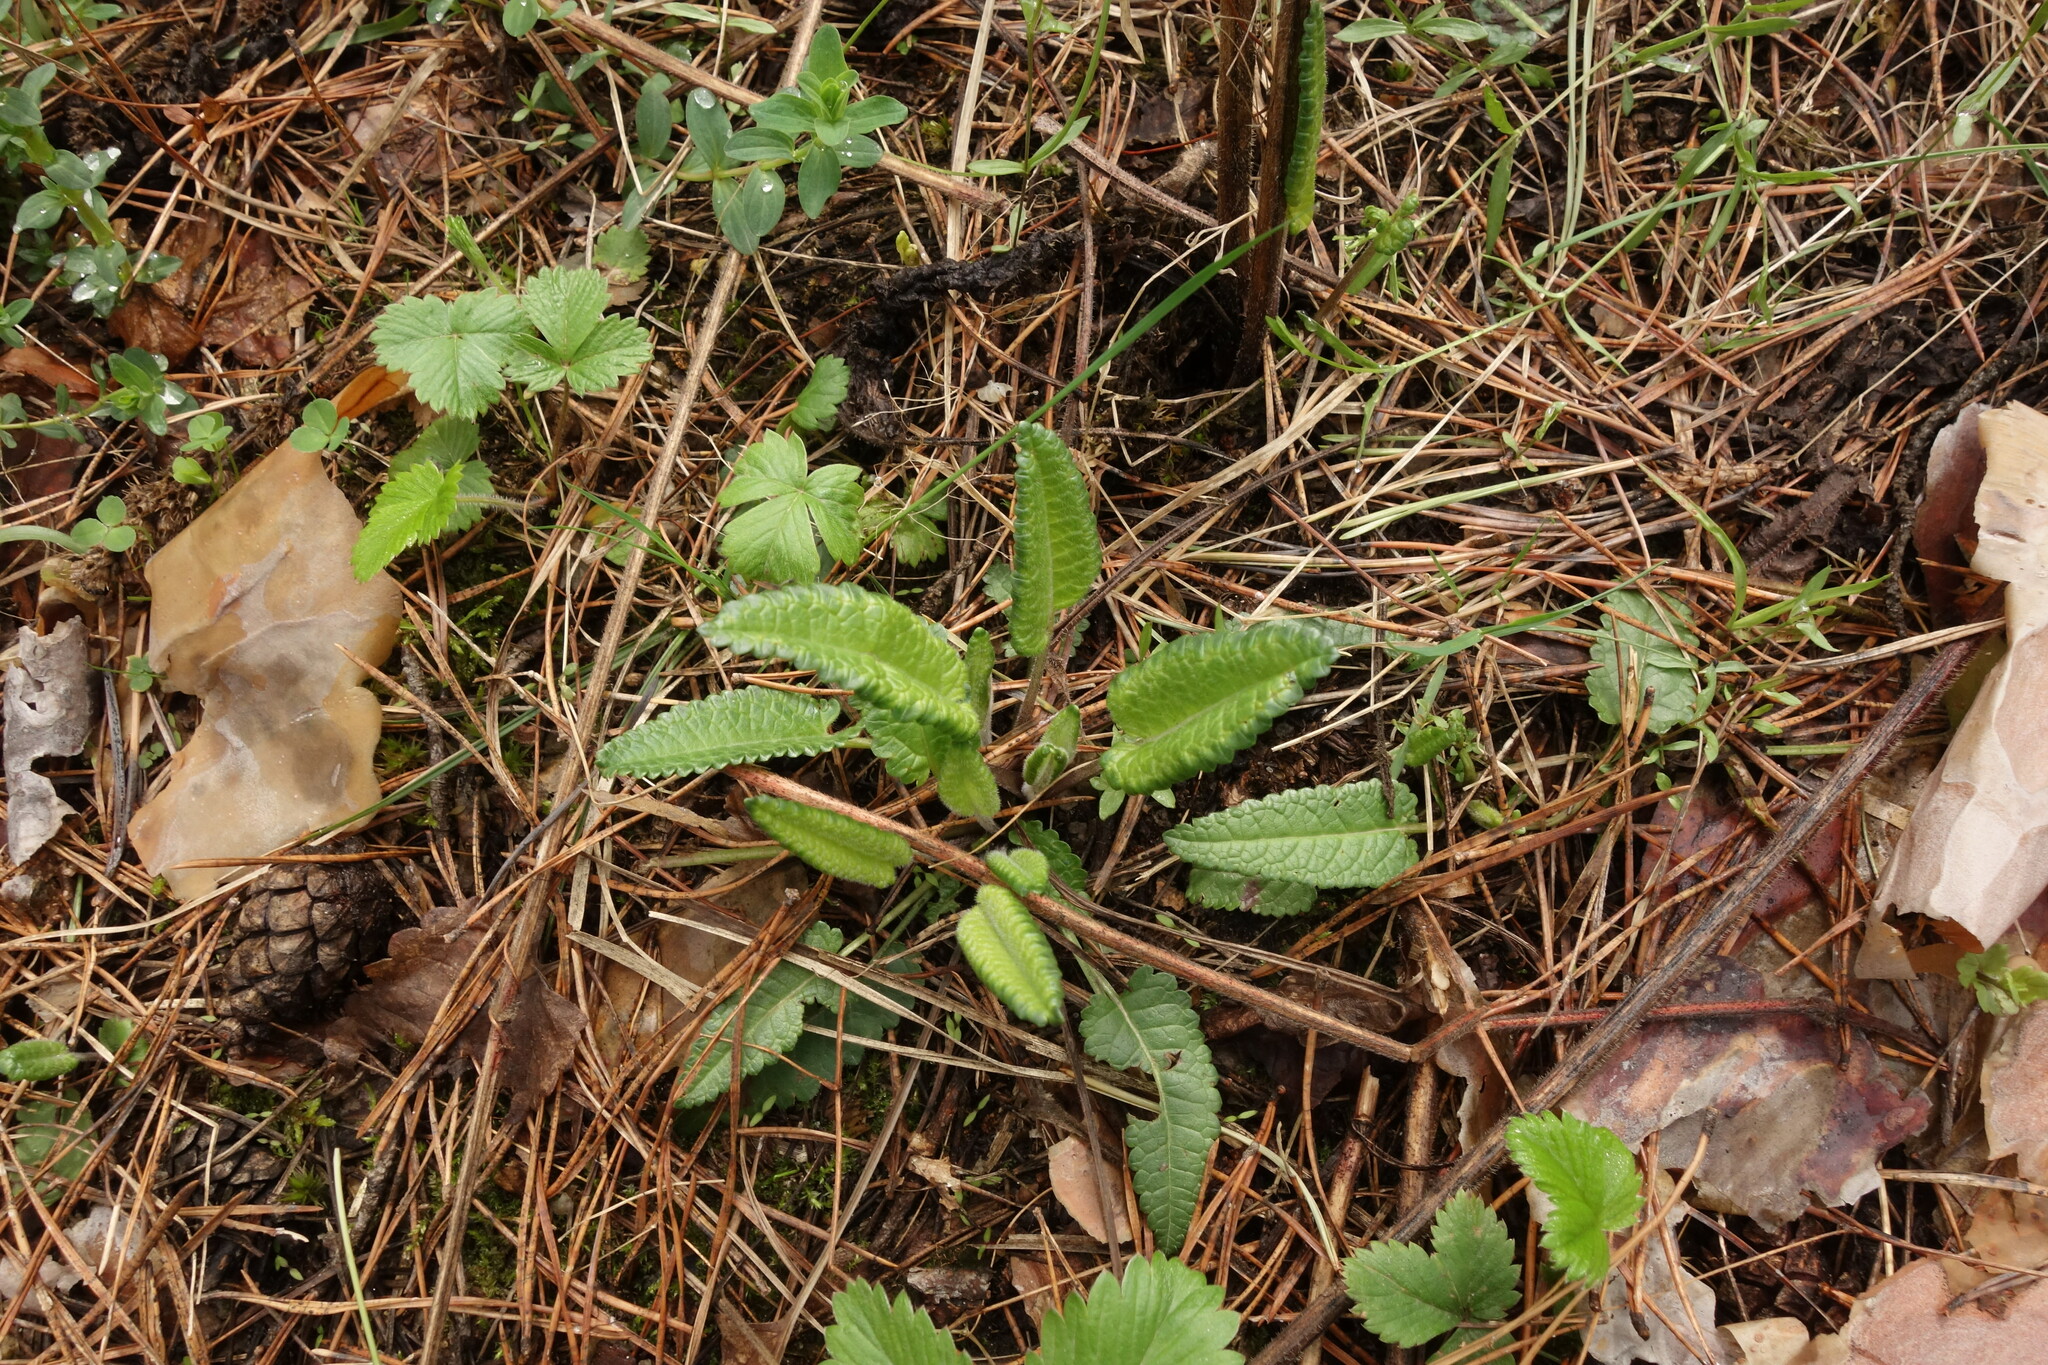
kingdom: Plantae
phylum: Tracheophyta
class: Magnoliopsida
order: Lamiales
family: Lamiaceae
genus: Betonica
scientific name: Betonica officinalis
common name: Bishop's-wort
